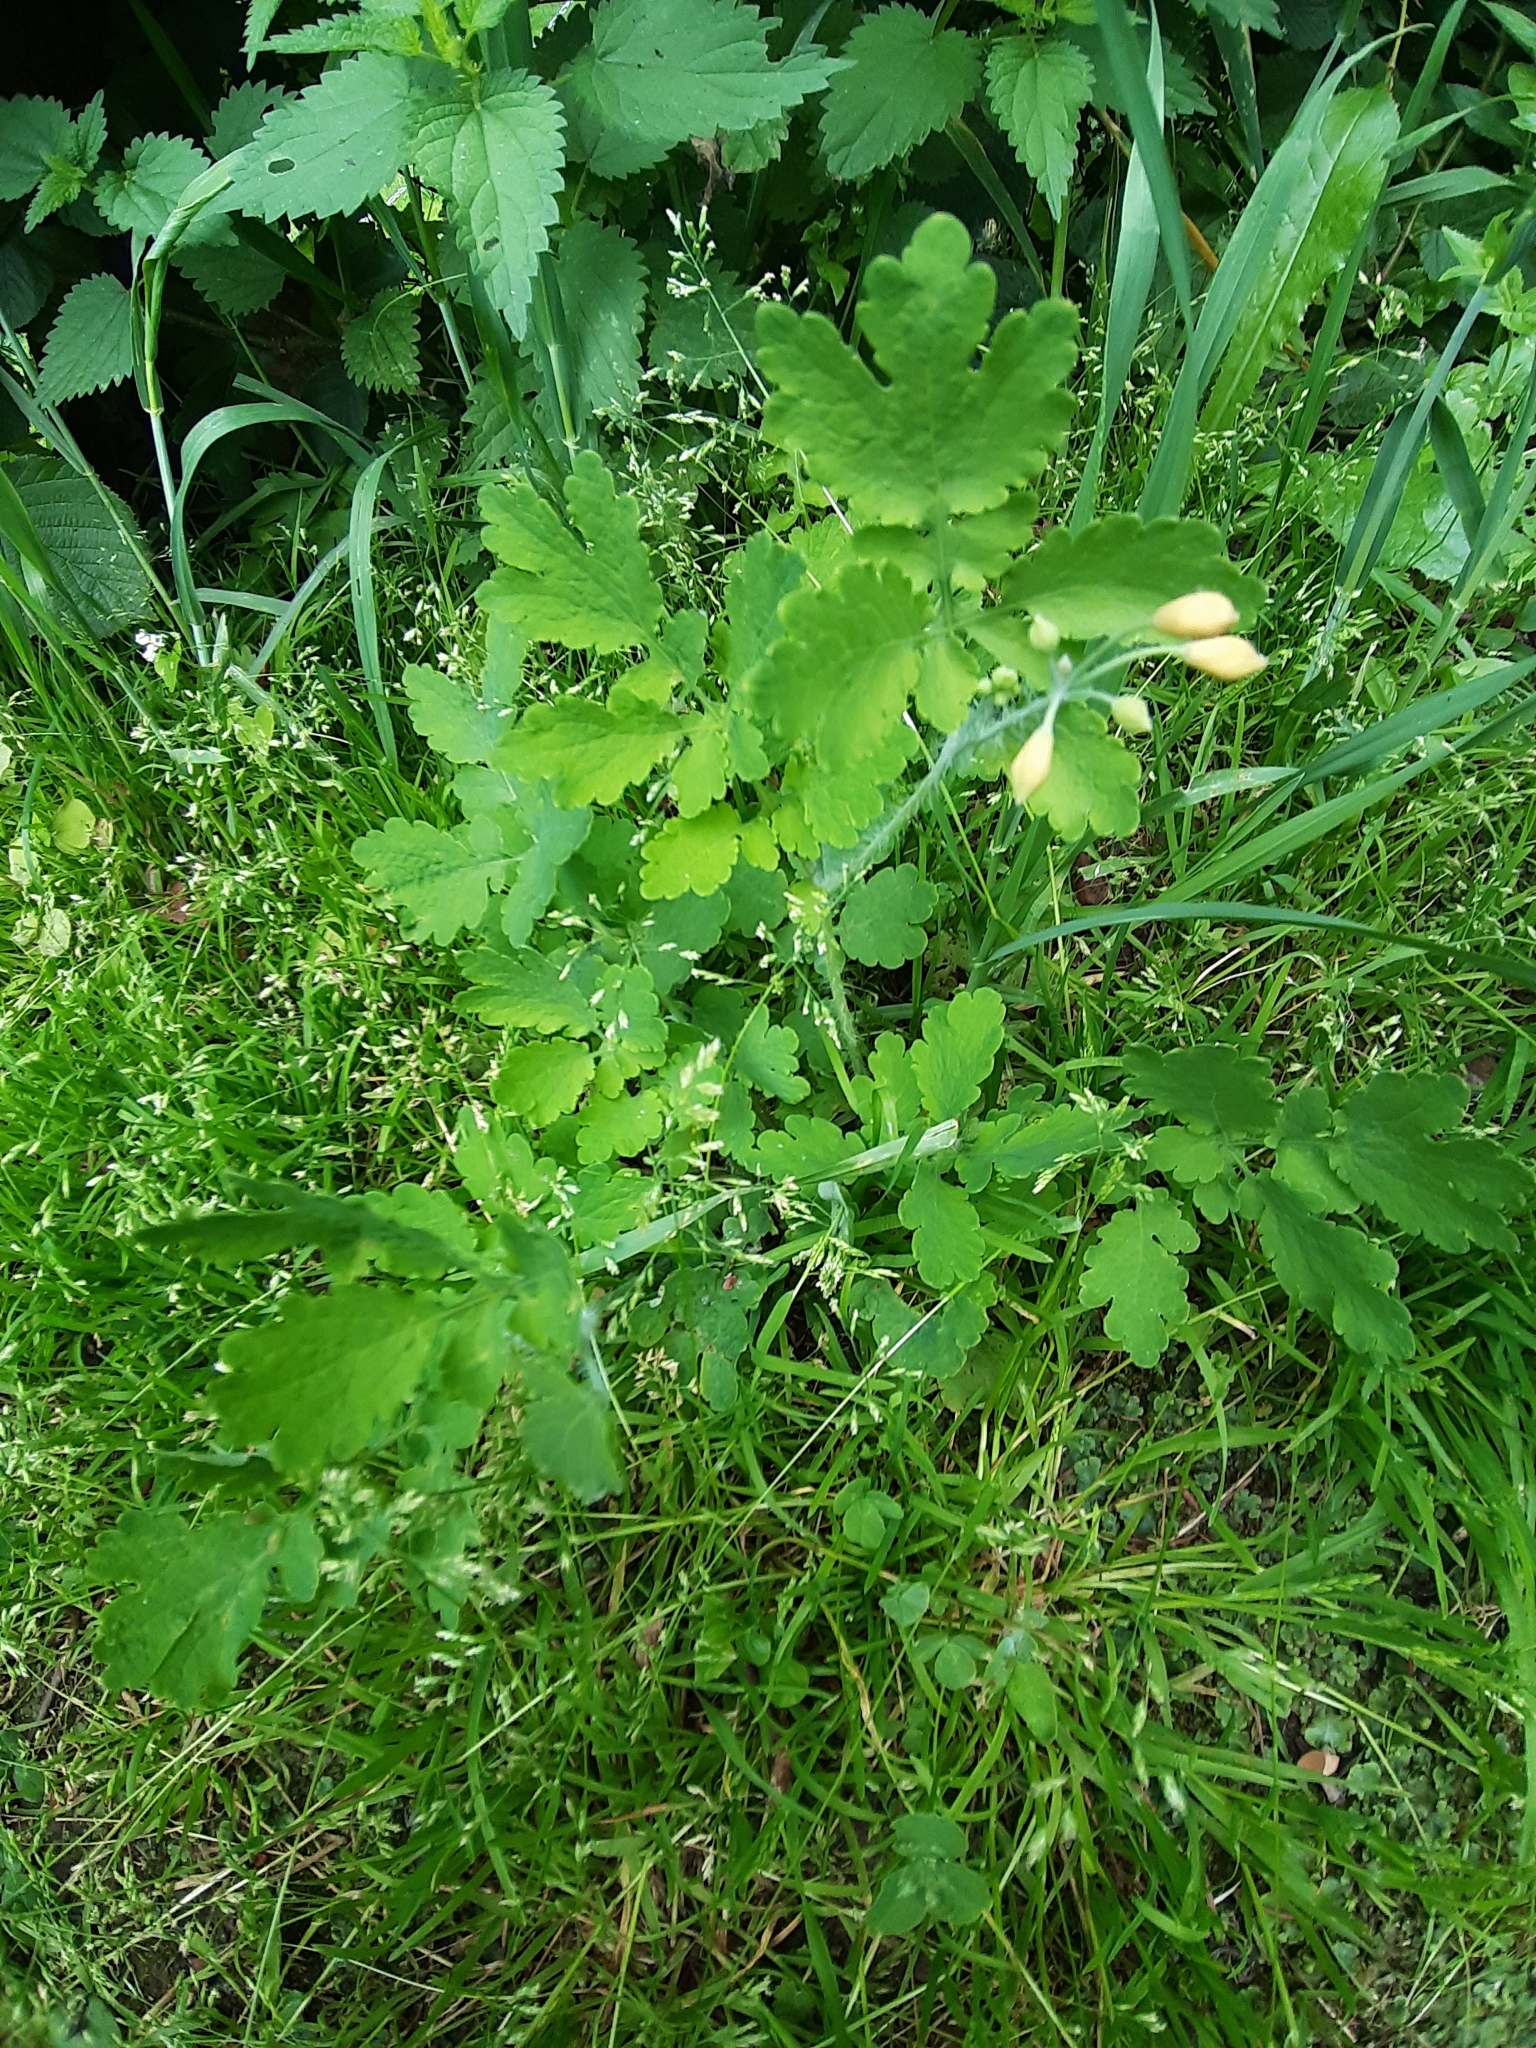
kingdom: Plantae
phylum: Tracheophyta
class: Magnoliopsida
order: Ranunculales
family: Papaveraceae
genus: Chelidonium
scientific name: Chelidonium majus
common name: Greater celandine
